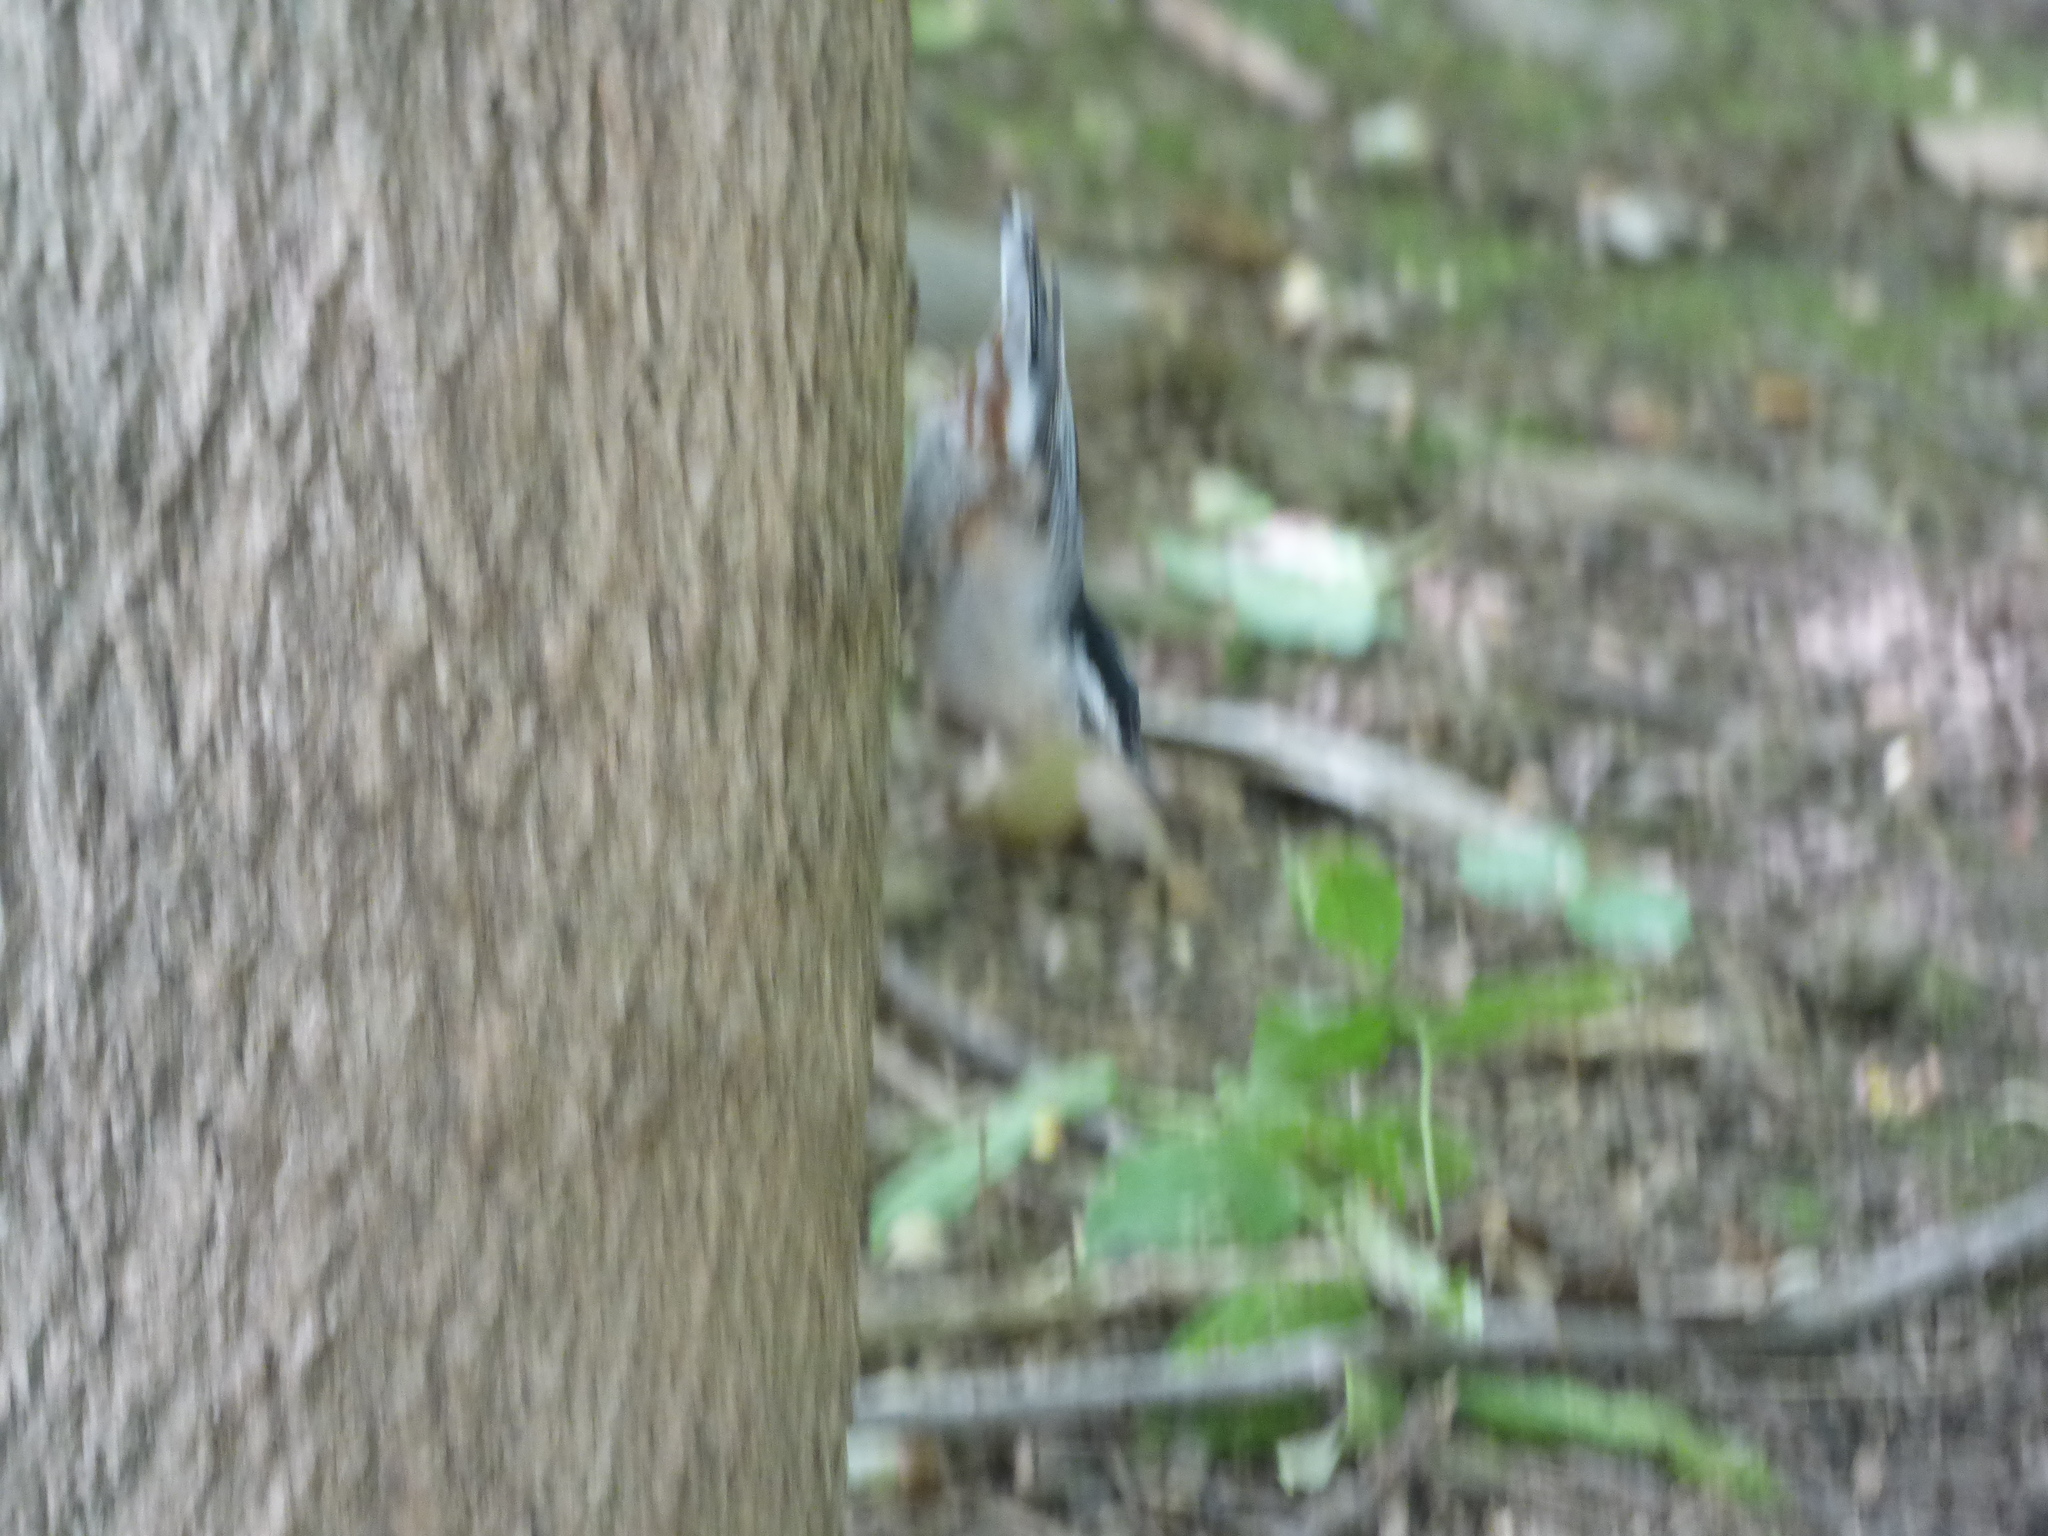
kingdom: Animalia
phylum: Chordata
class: Aves
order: Passeriformes
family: Sittidae
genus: Sitta
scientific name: Sitta carolinensis
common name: White-breasted nuthatch
